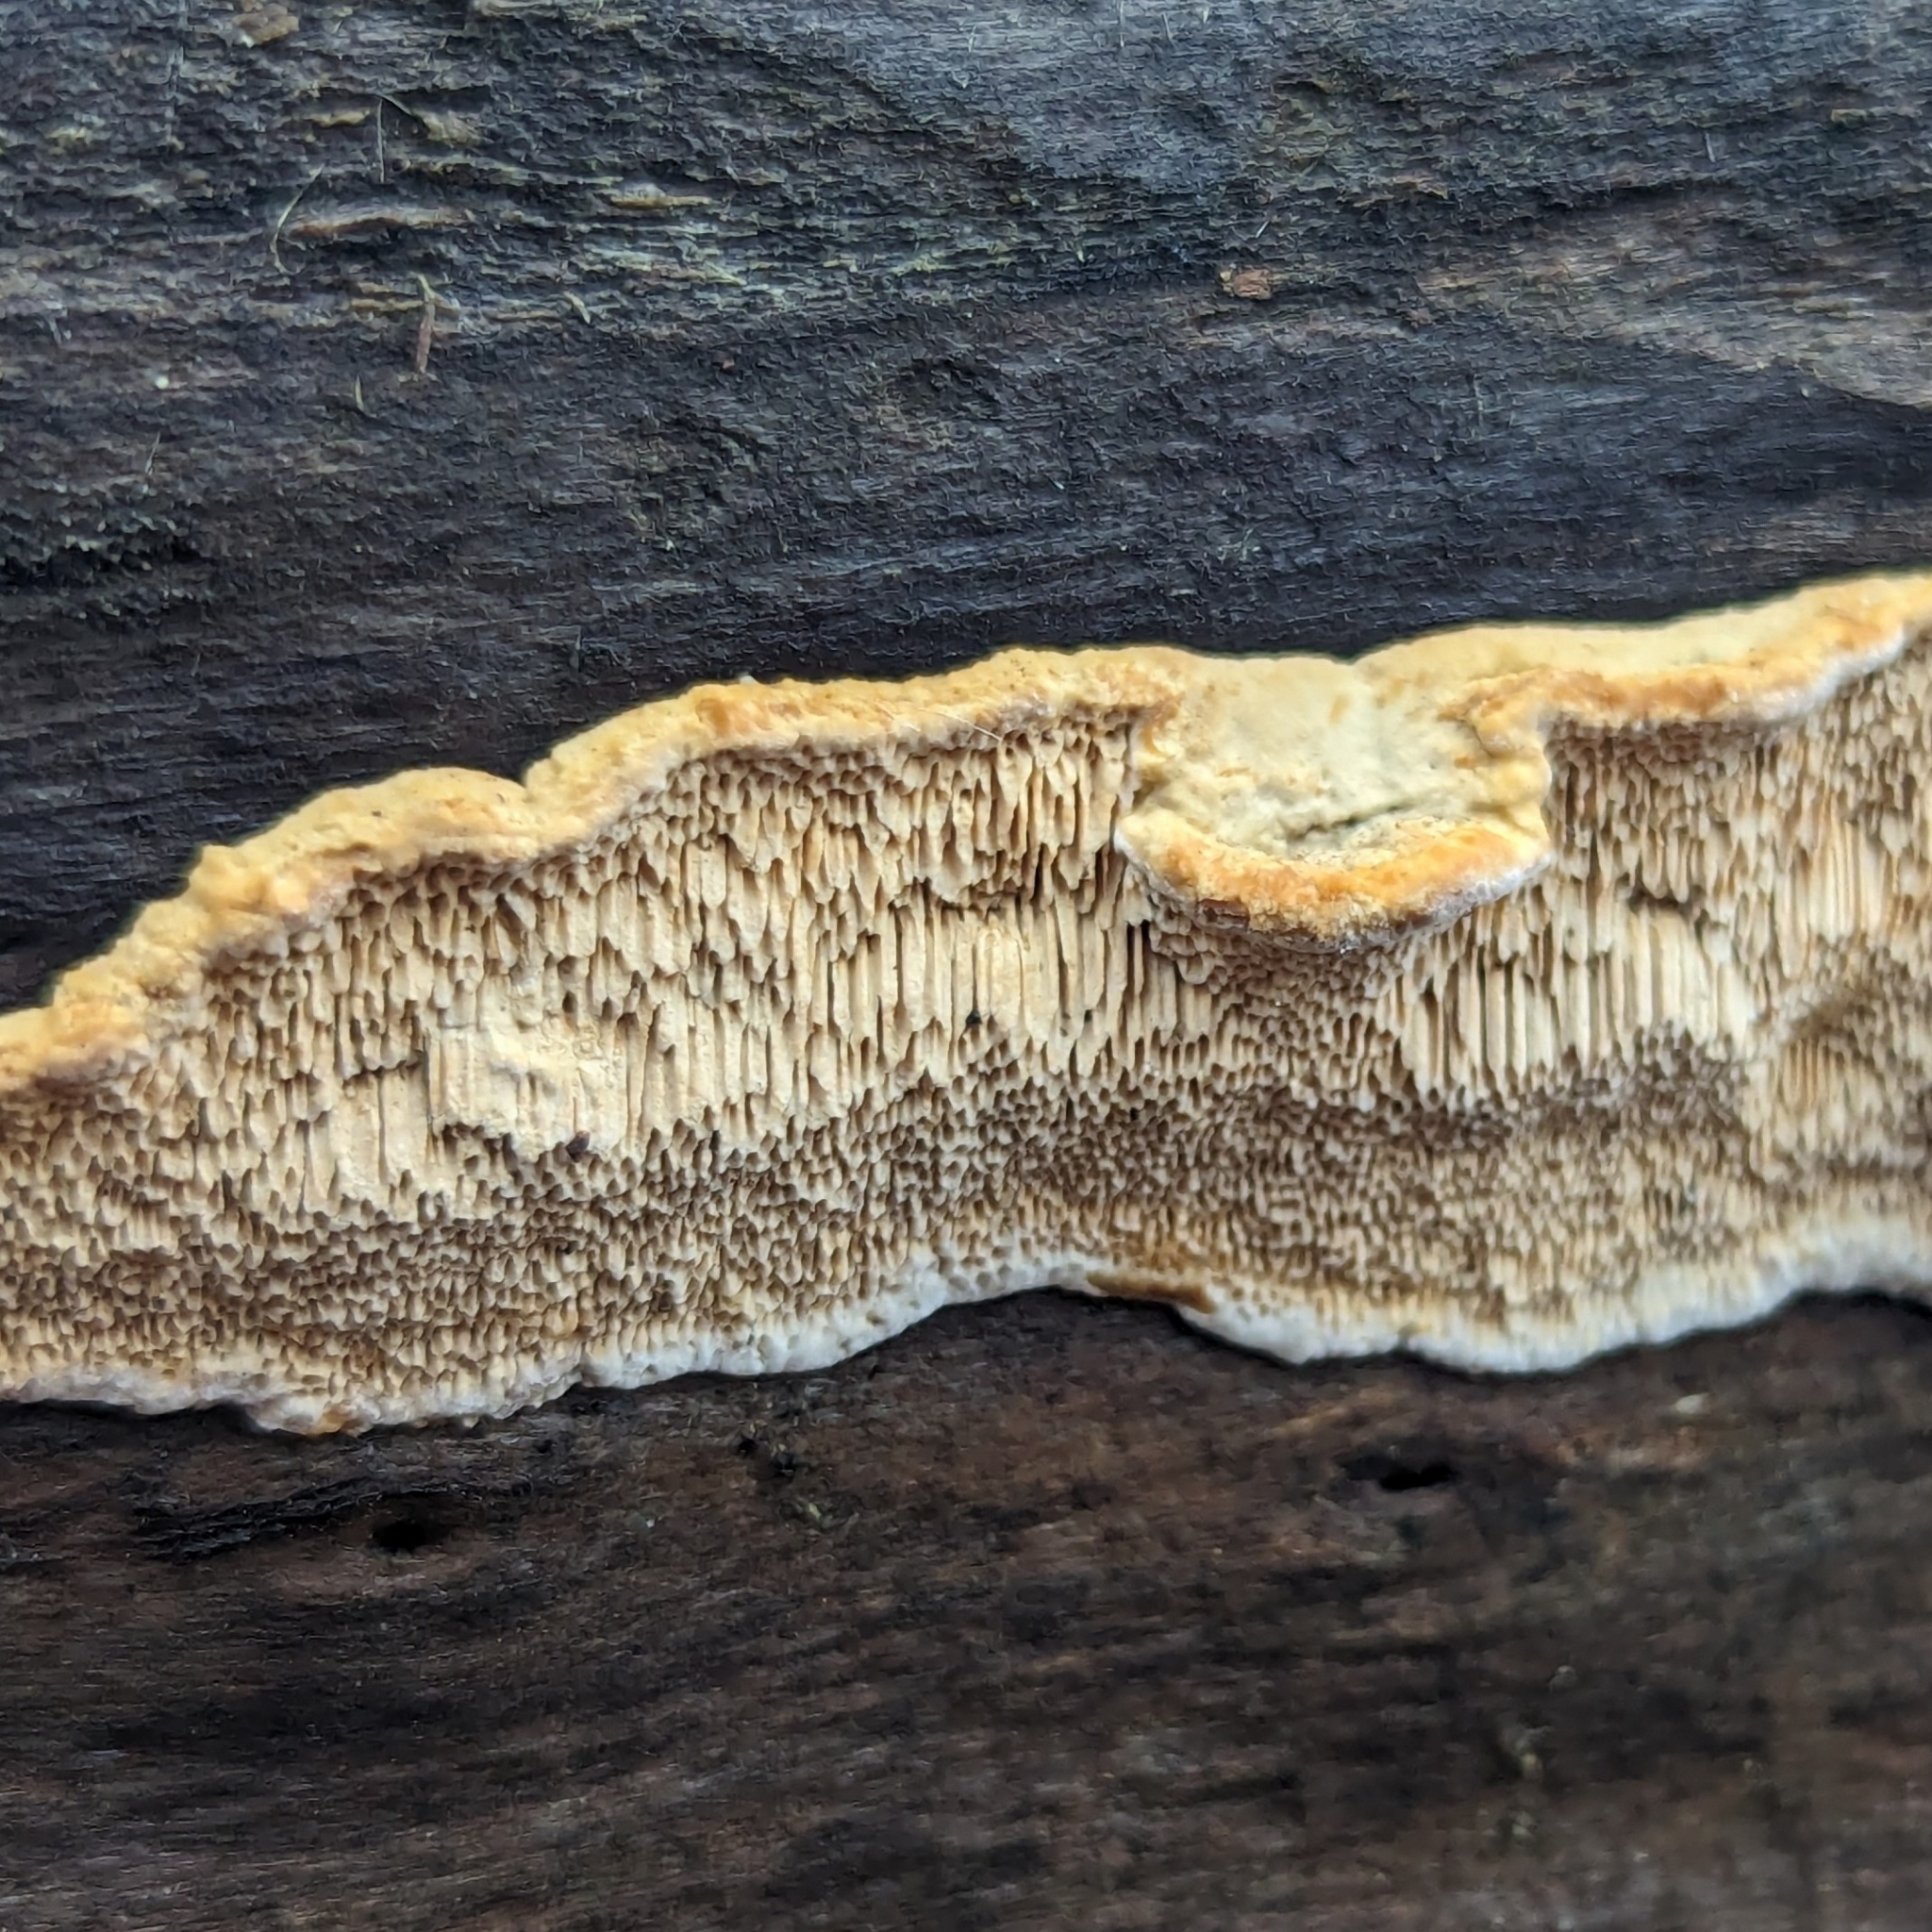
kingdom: Fungi
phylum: Basidiomycota
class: Agaricomycetes
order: Polyporales
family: Irpicaceae
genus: Trametopsis
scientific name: Trametopsis cervina
